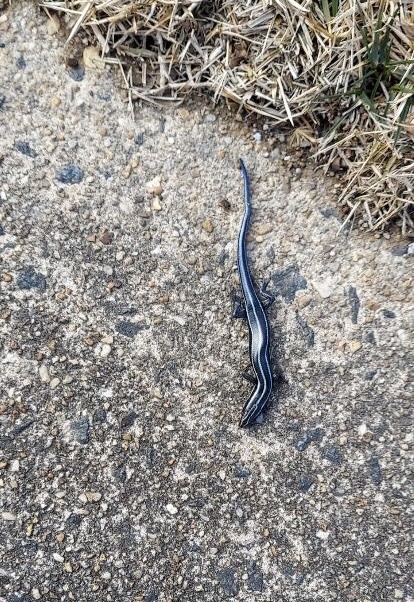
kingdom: Animalia
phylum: Chordata
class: Squamata
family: Scincidae
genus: Plestiodon
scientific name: Plestiodon fasciatus
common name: Five-lined skink
